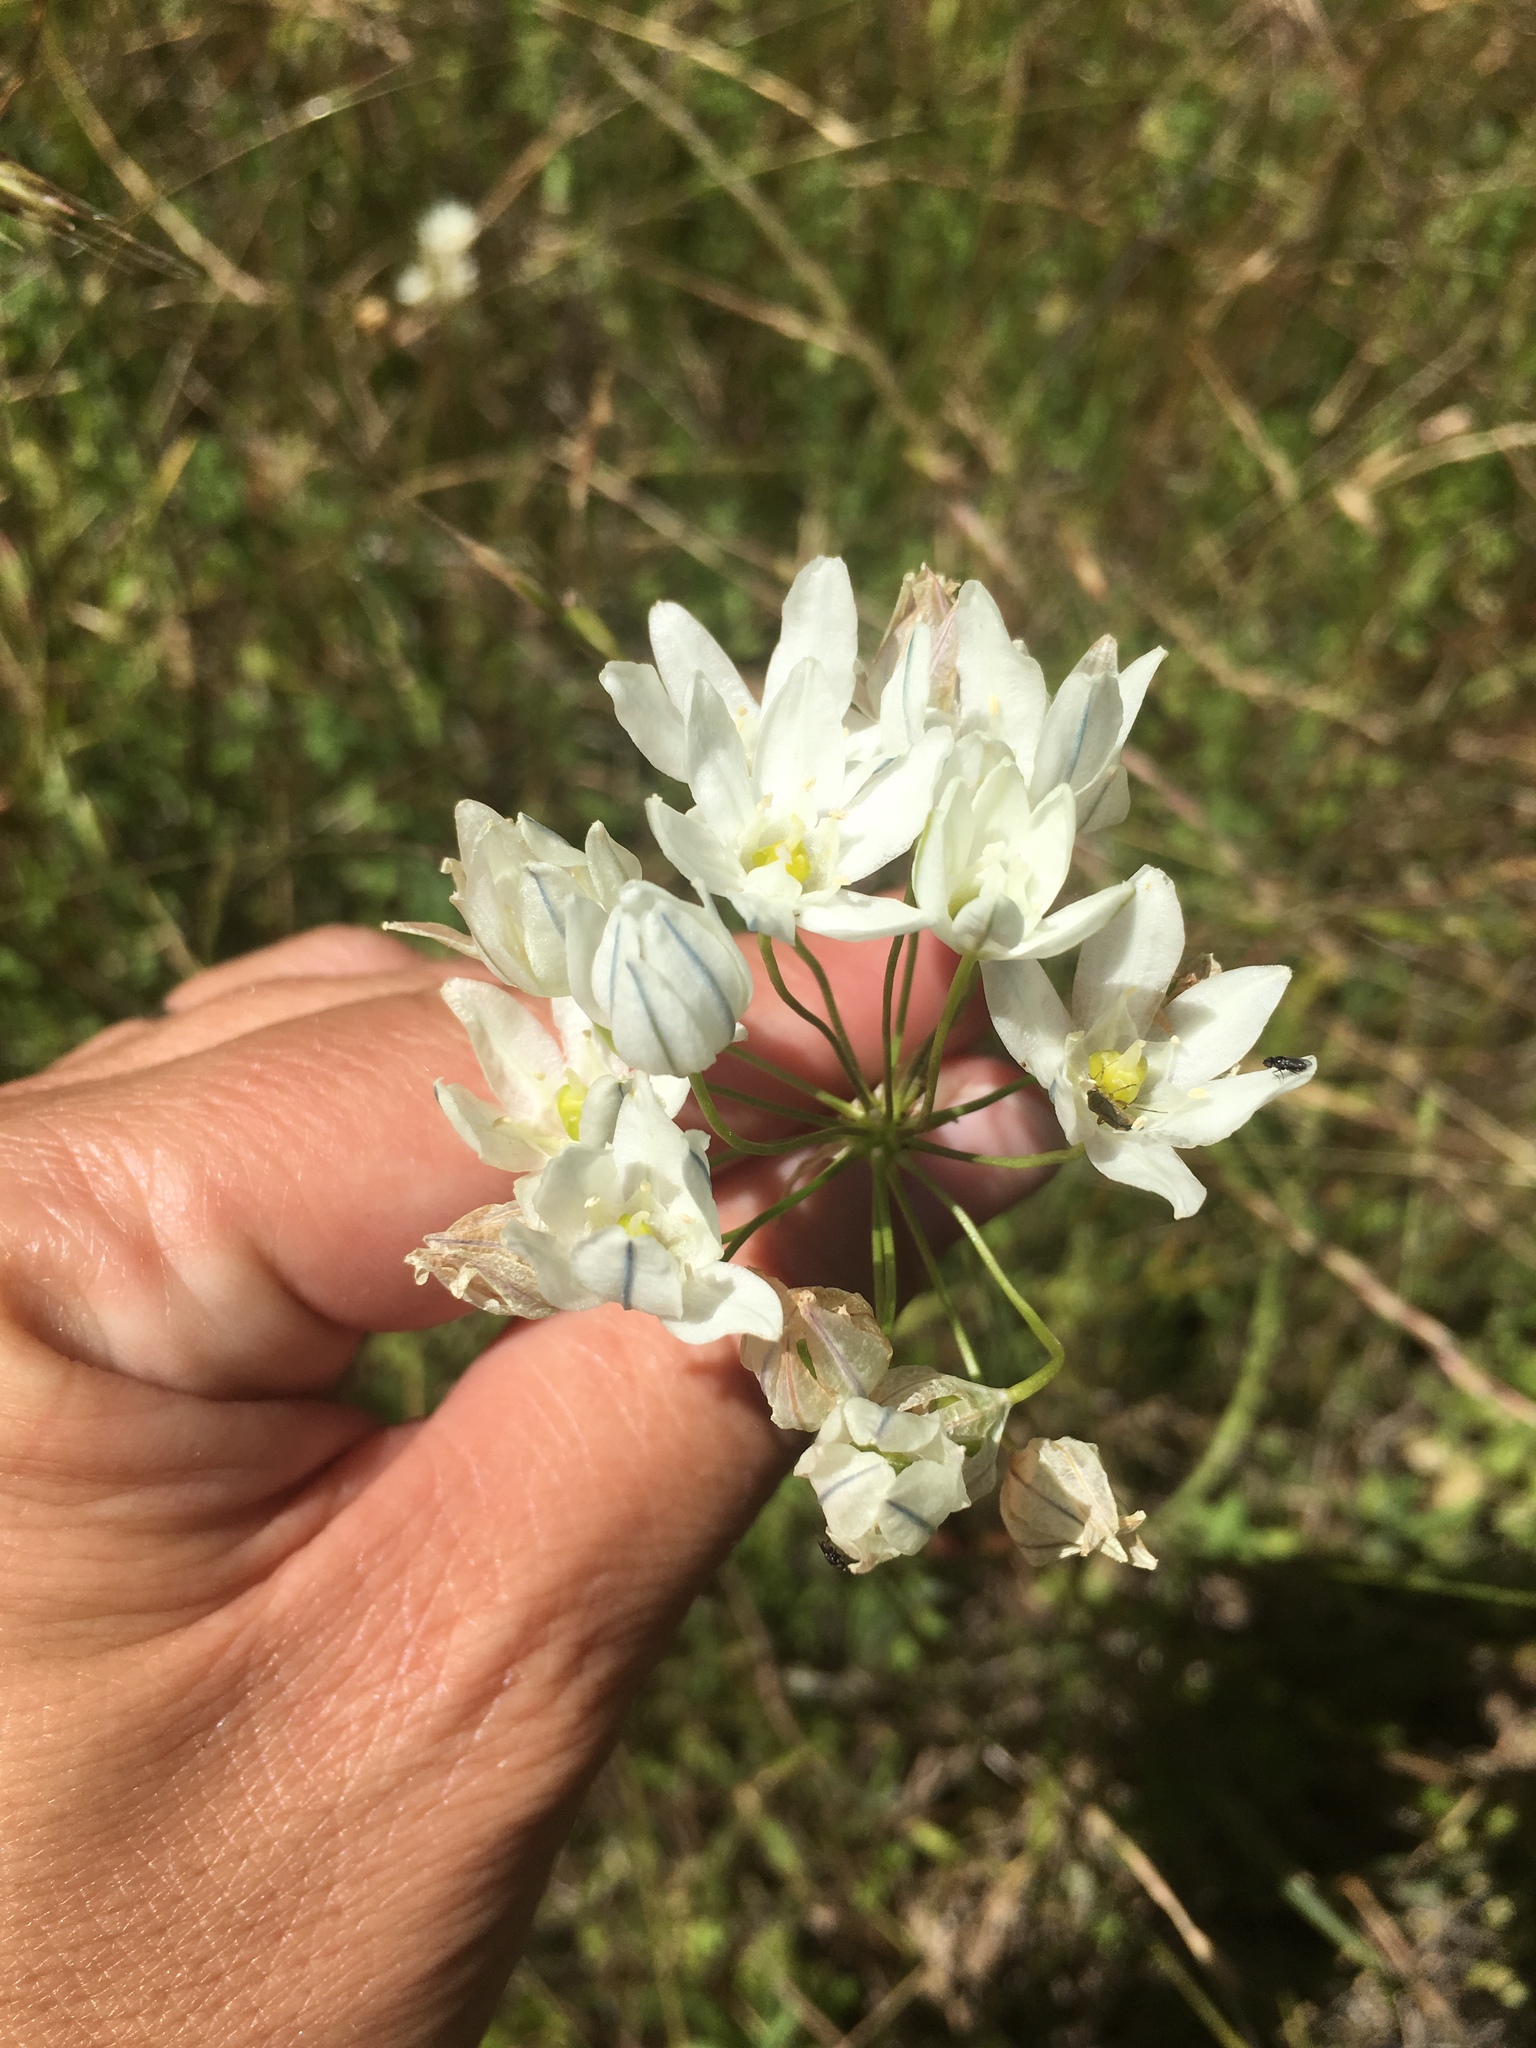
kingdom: Plantae
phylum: Tracheophyta
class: Liliopsida
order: Asparagales
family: Asparagaceae
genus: Triteleia
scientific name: Triteleia hyacinthina
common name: White brodiaea
